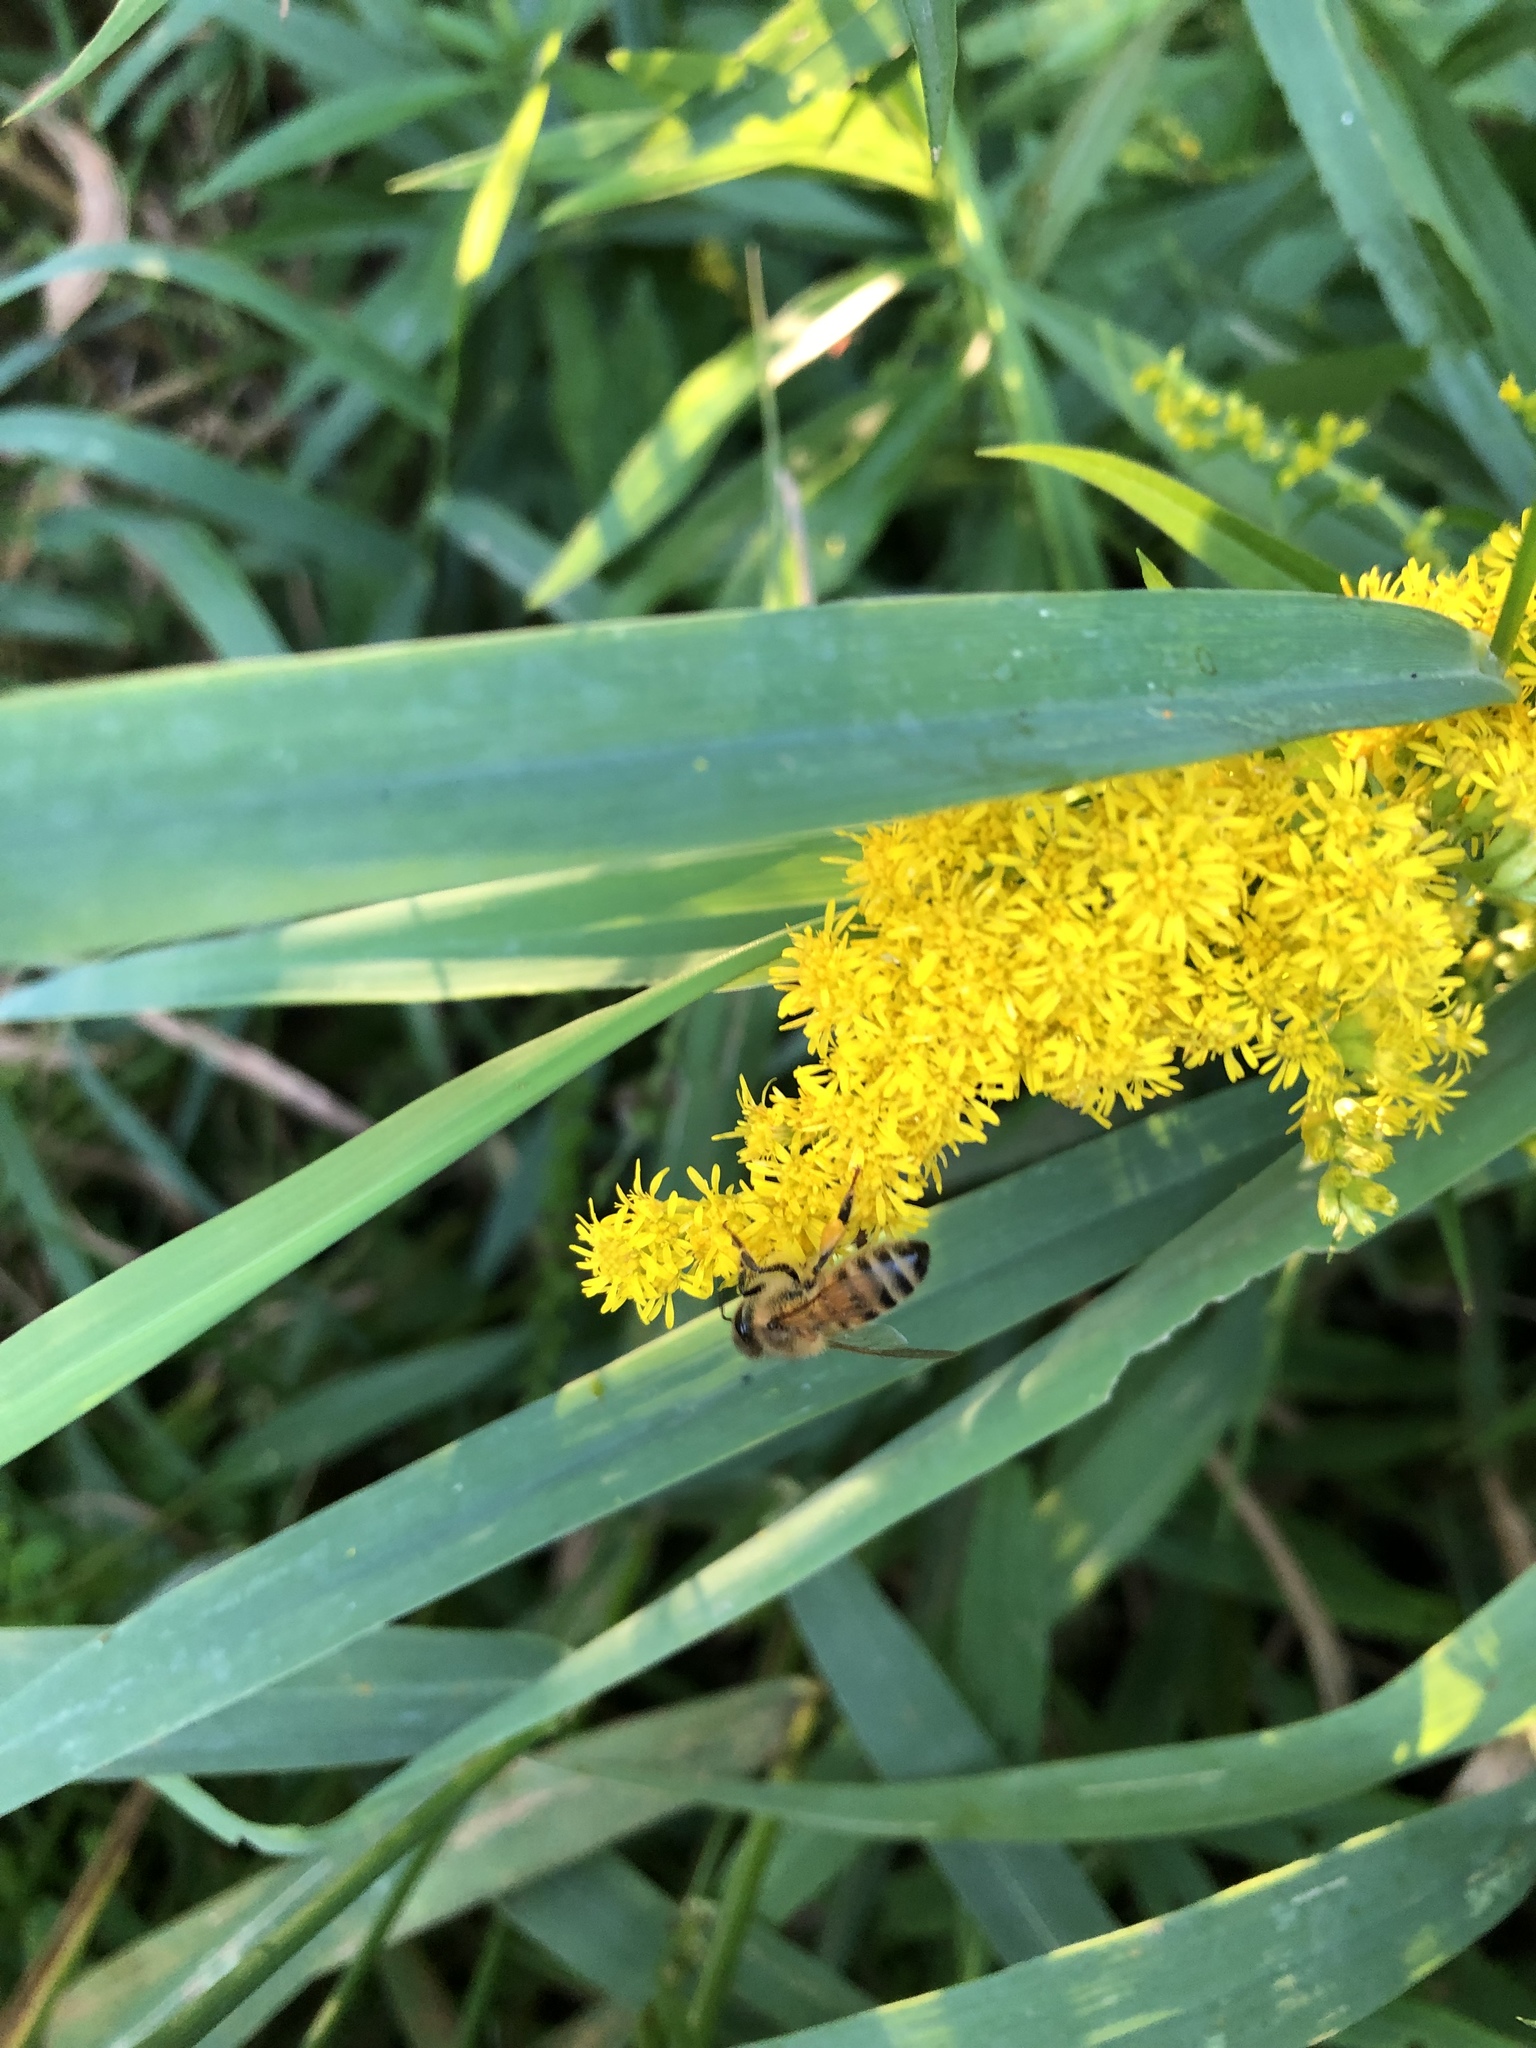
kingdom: Animalia
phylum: Arthropoda
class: Insecta
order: Hymenoptera
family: Apidae
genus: Apis
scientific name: Apis mellifera
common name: Honey bee
